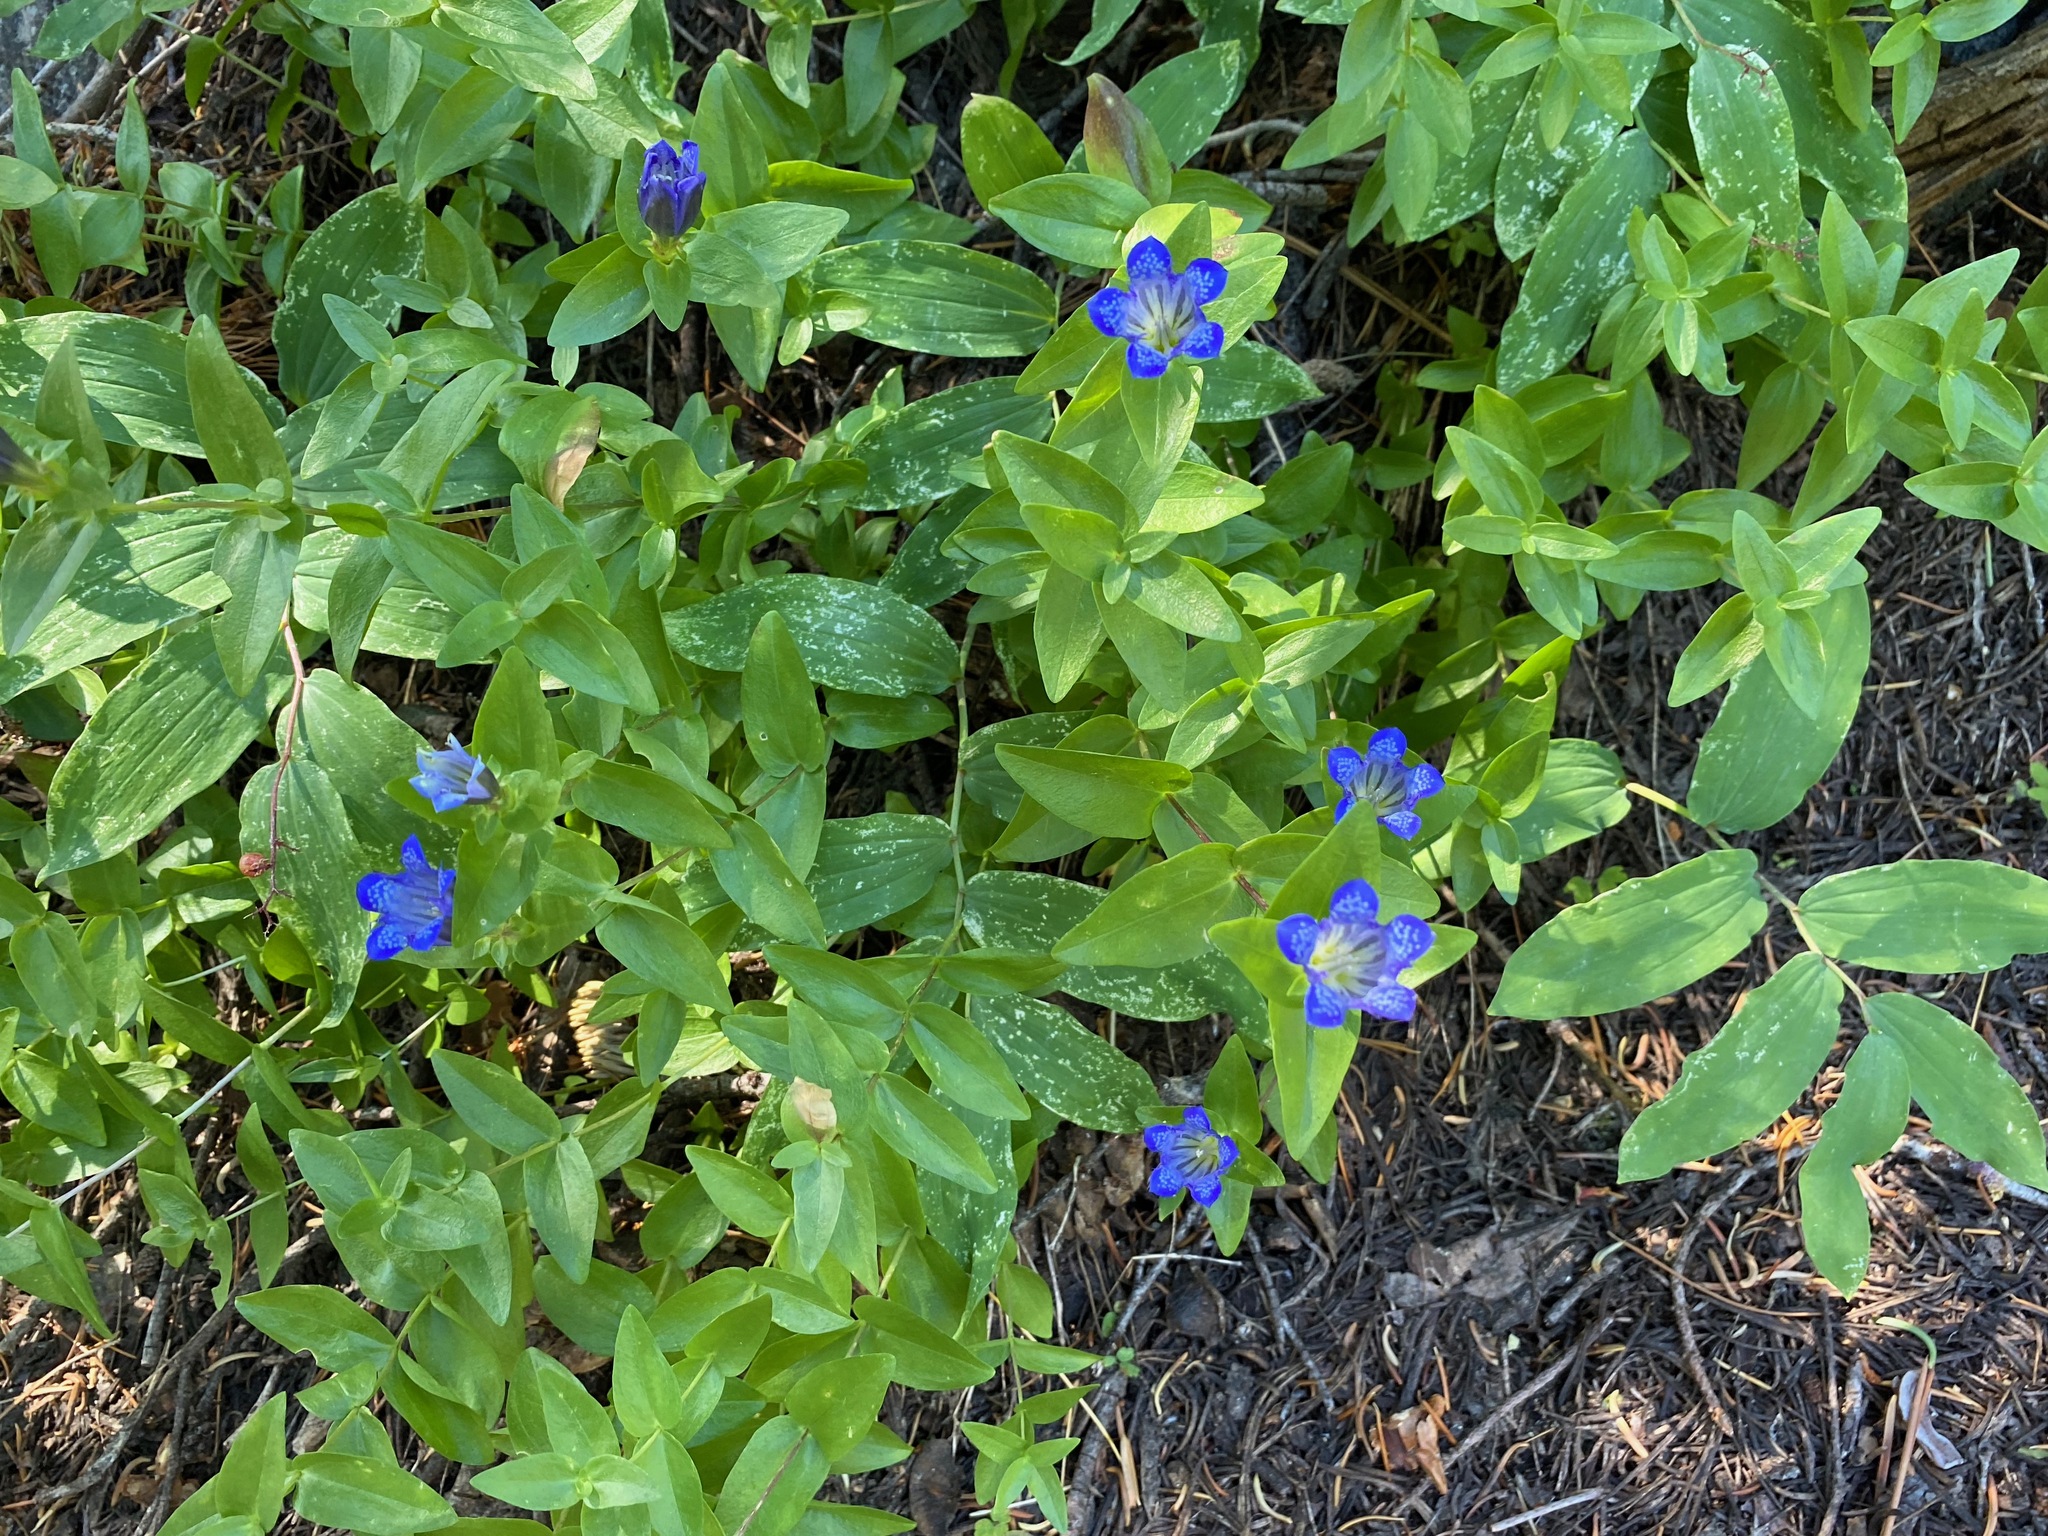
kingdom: Plantae
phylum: Tracheophyta
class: Magnoliopsida
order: Gentianales
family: Gentianaceae
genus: Gentiana
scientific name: Gentiana calycosa
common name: Rainier pleated gentian
